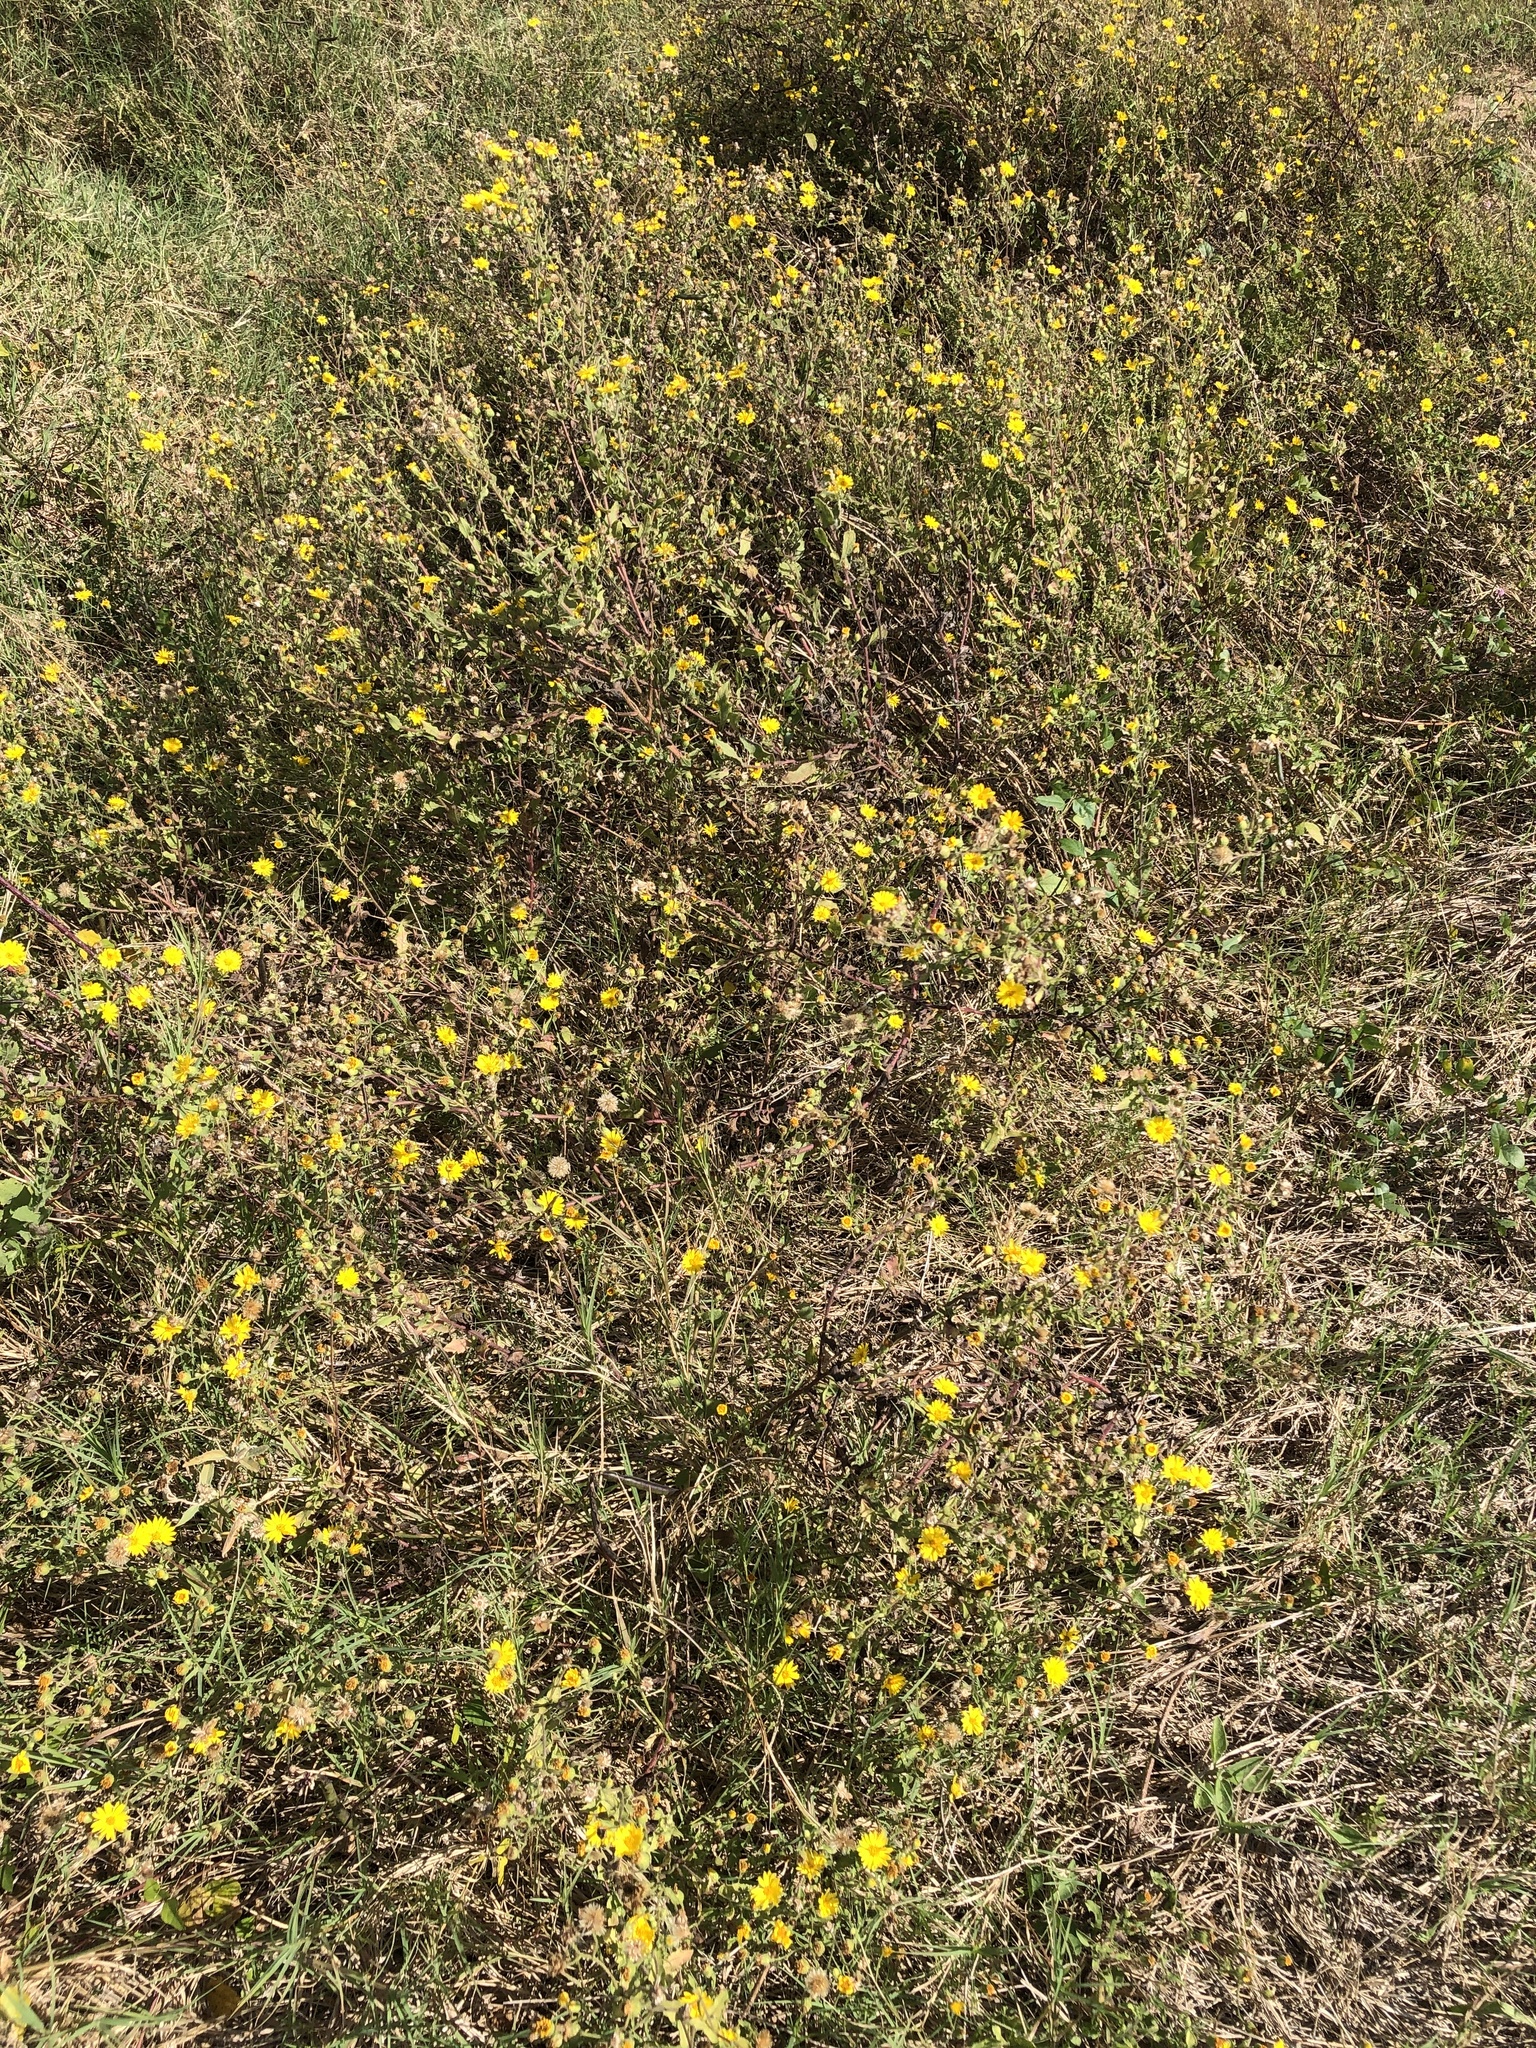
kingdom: Plantae
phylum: Tracheophyta
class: Magnoliopsida
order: Asterales
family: Asteraceae
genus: Heterotheca
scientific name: Heterotheca subaxillaris
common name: Camphorweed
